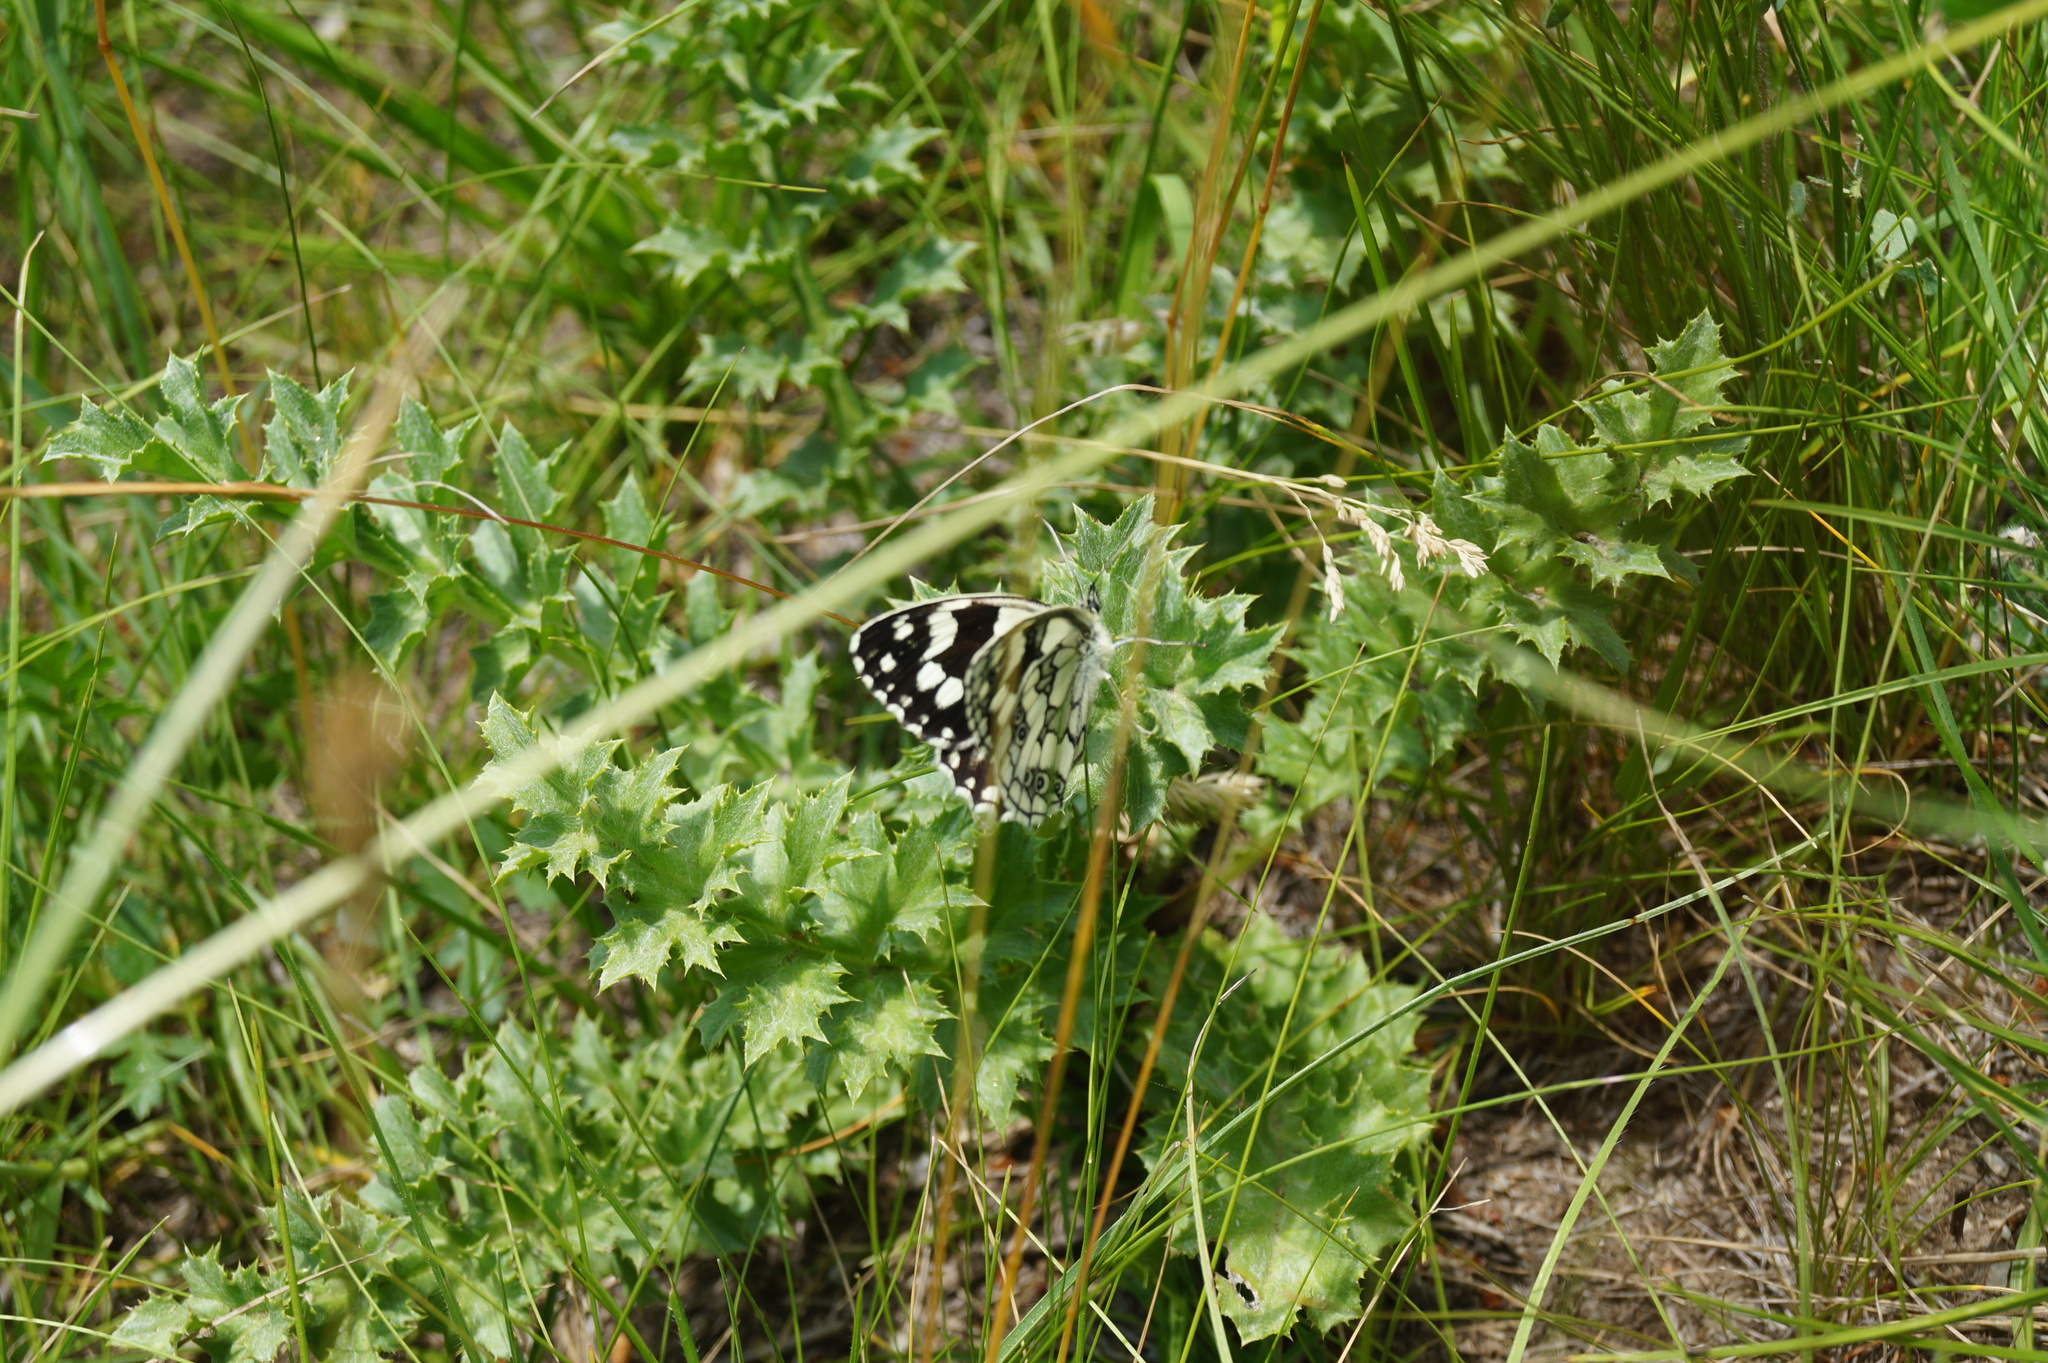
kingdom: Animalia
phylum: Arthropoda
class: Insecta
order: Lepidoptera
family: Nymphalidae
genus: Melanargia
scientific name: Melanargia galathea
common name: Marbled white
